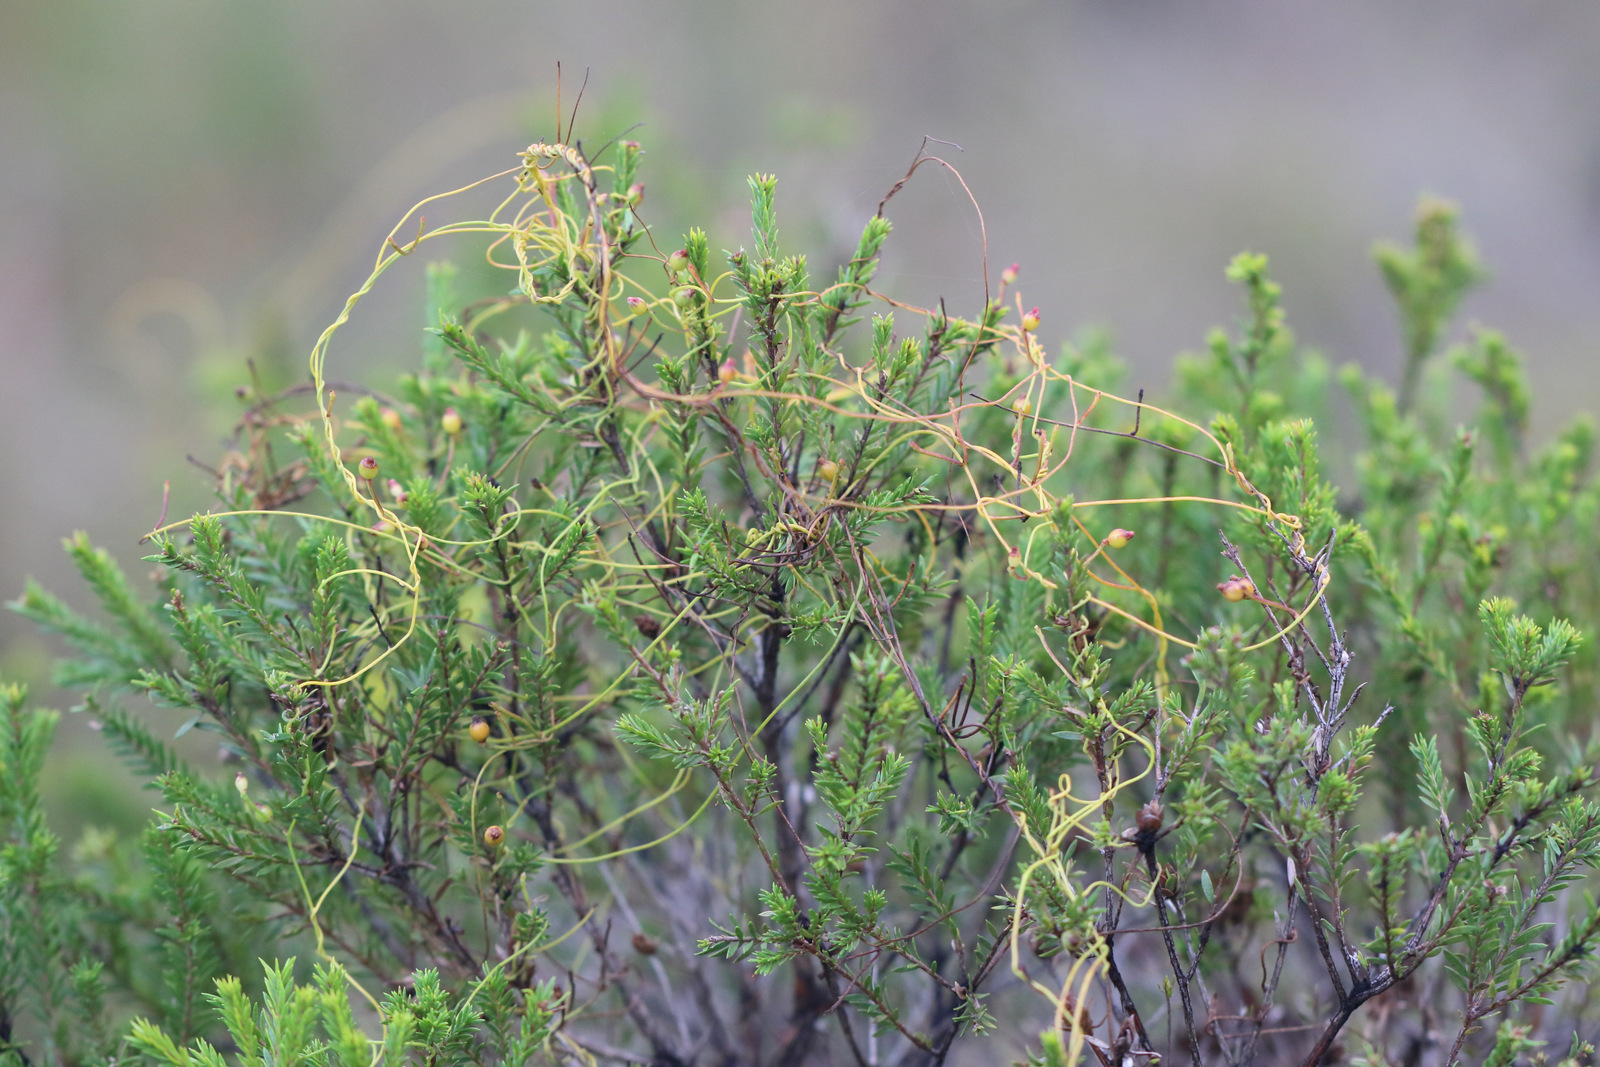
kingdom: Plantae
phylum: Tracheophyta
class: Magnoliopsida
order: Laurales
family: Lauraceae
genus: Cassytha
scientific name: Cassytha glabella
